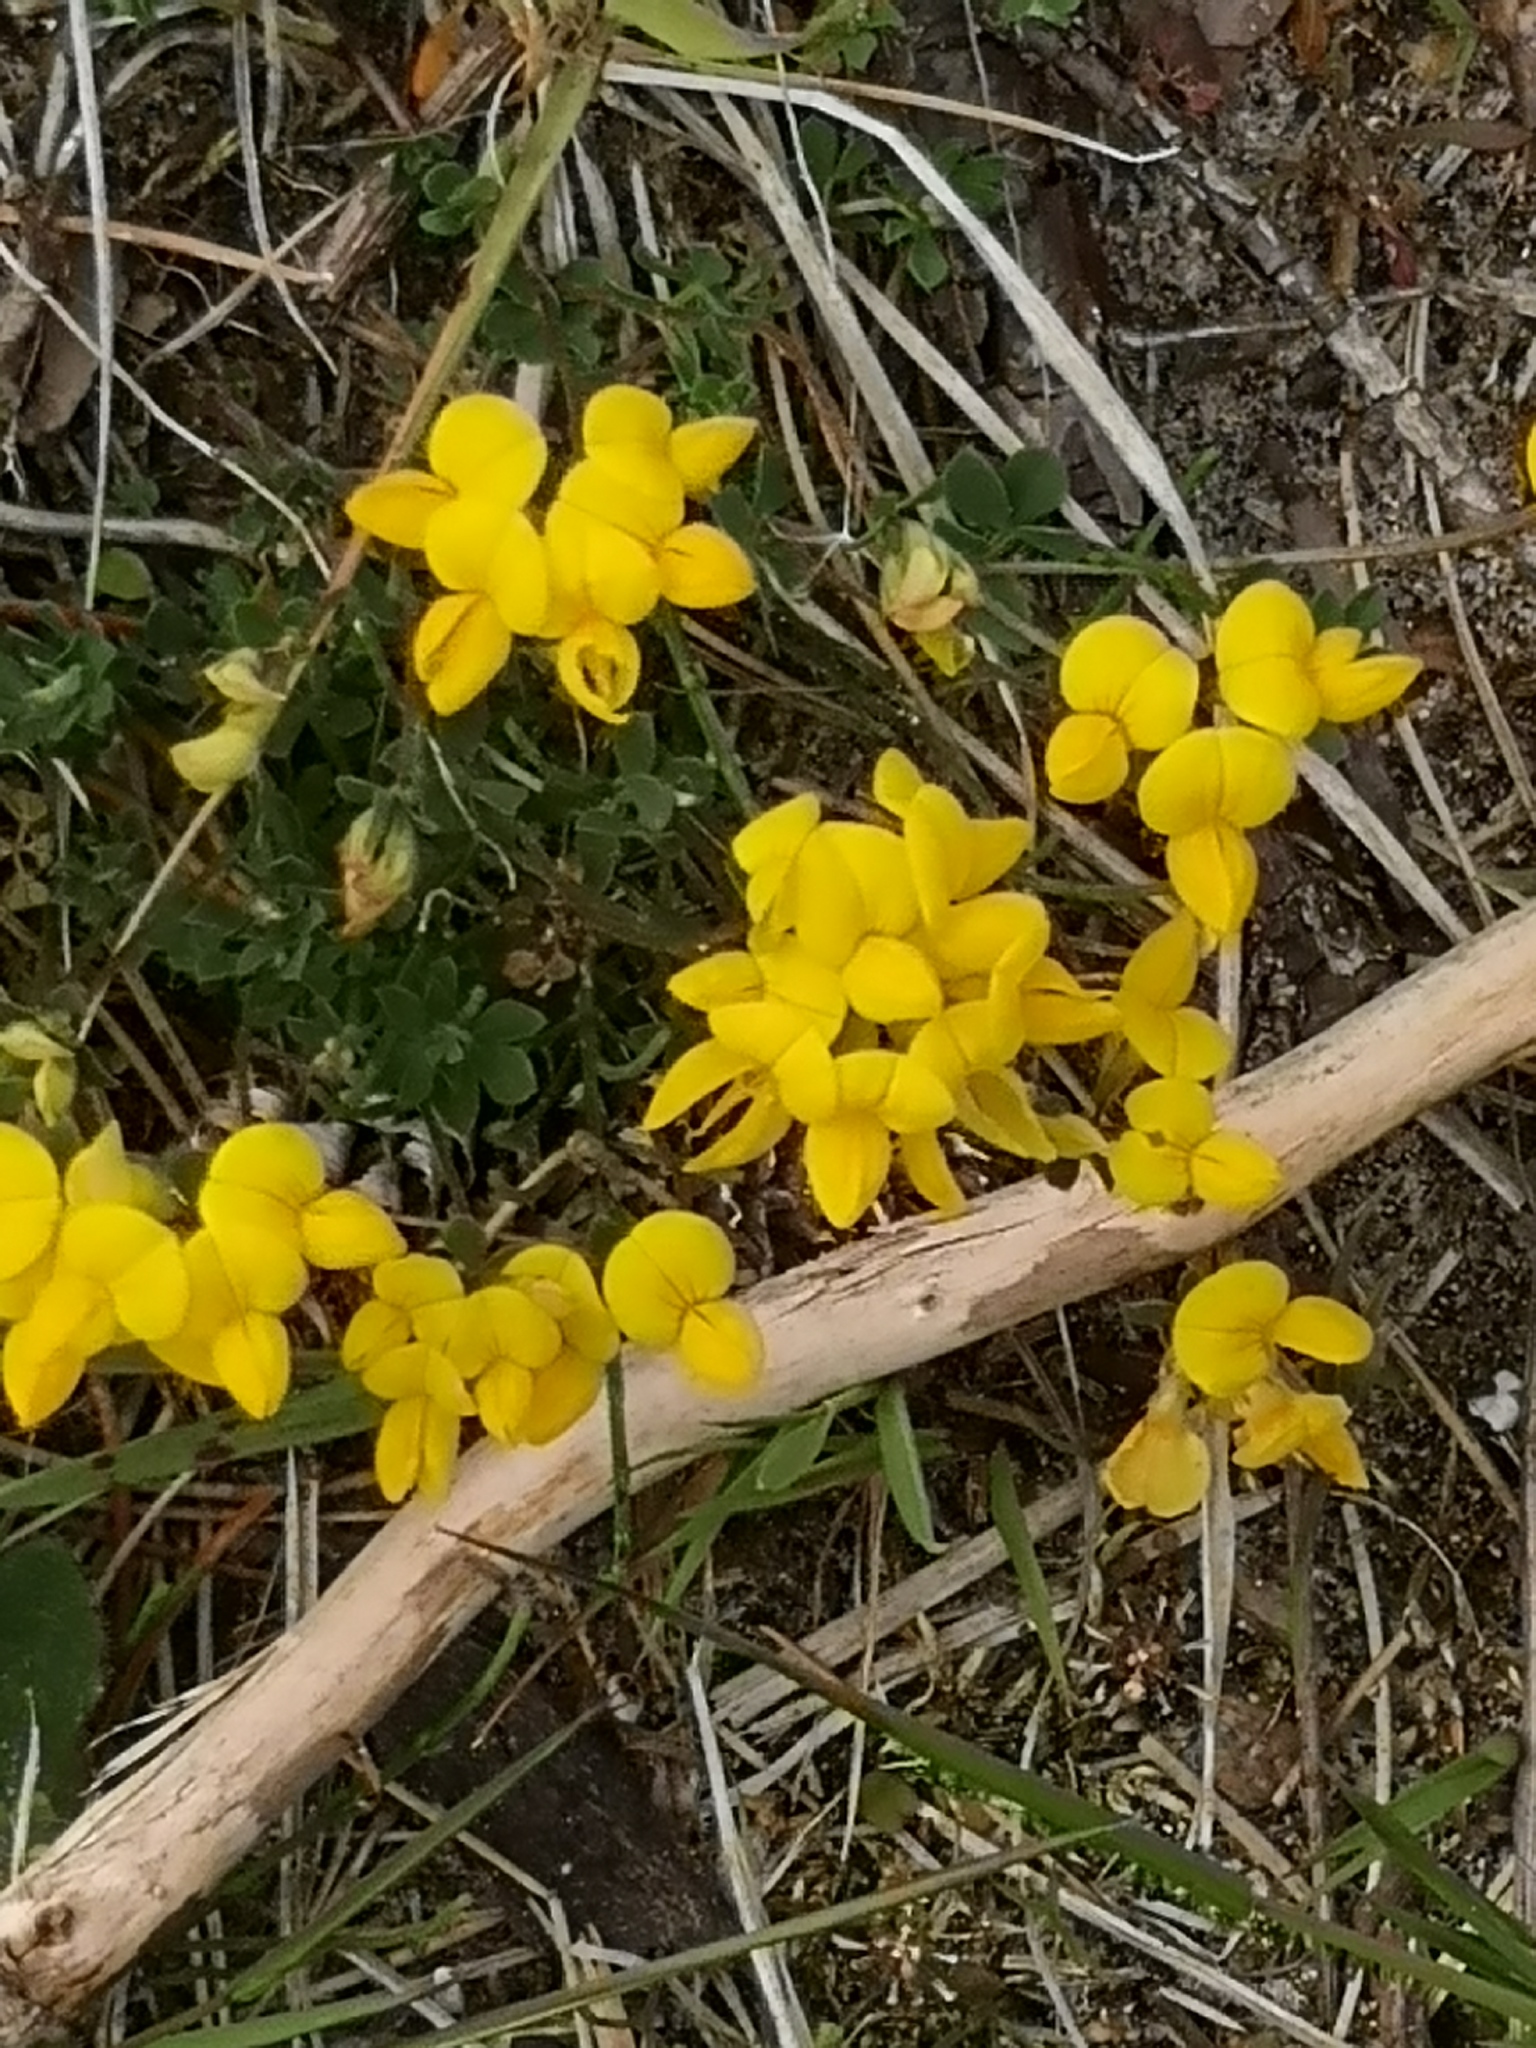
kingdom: Plantae
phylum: Tracheophyta
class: Magnoliopsida
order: Fabales
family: Fabaceae
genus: Lotus
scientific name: Lotus corniculatus
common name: Common bird's-foot-trefoil
